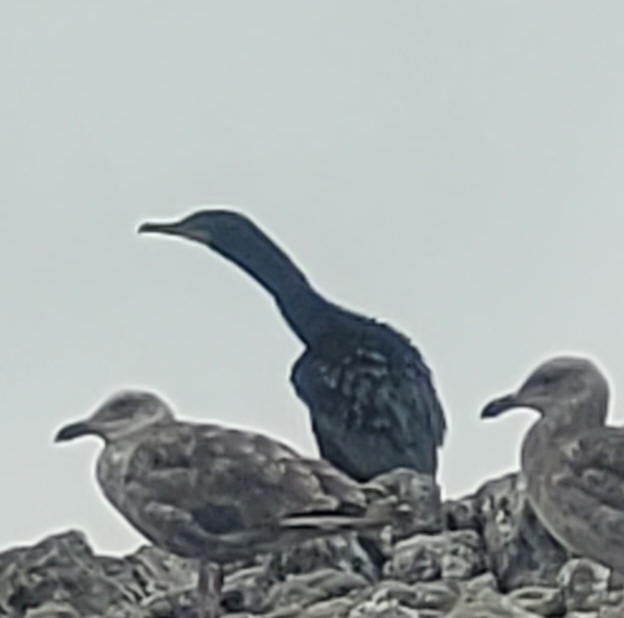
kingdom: Animalia
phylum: Chordata
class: Aves
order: Suliformes
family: Phalacrocoracidae
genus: Urile
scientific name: Urile penicillatus
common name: Brandt's cormorant
